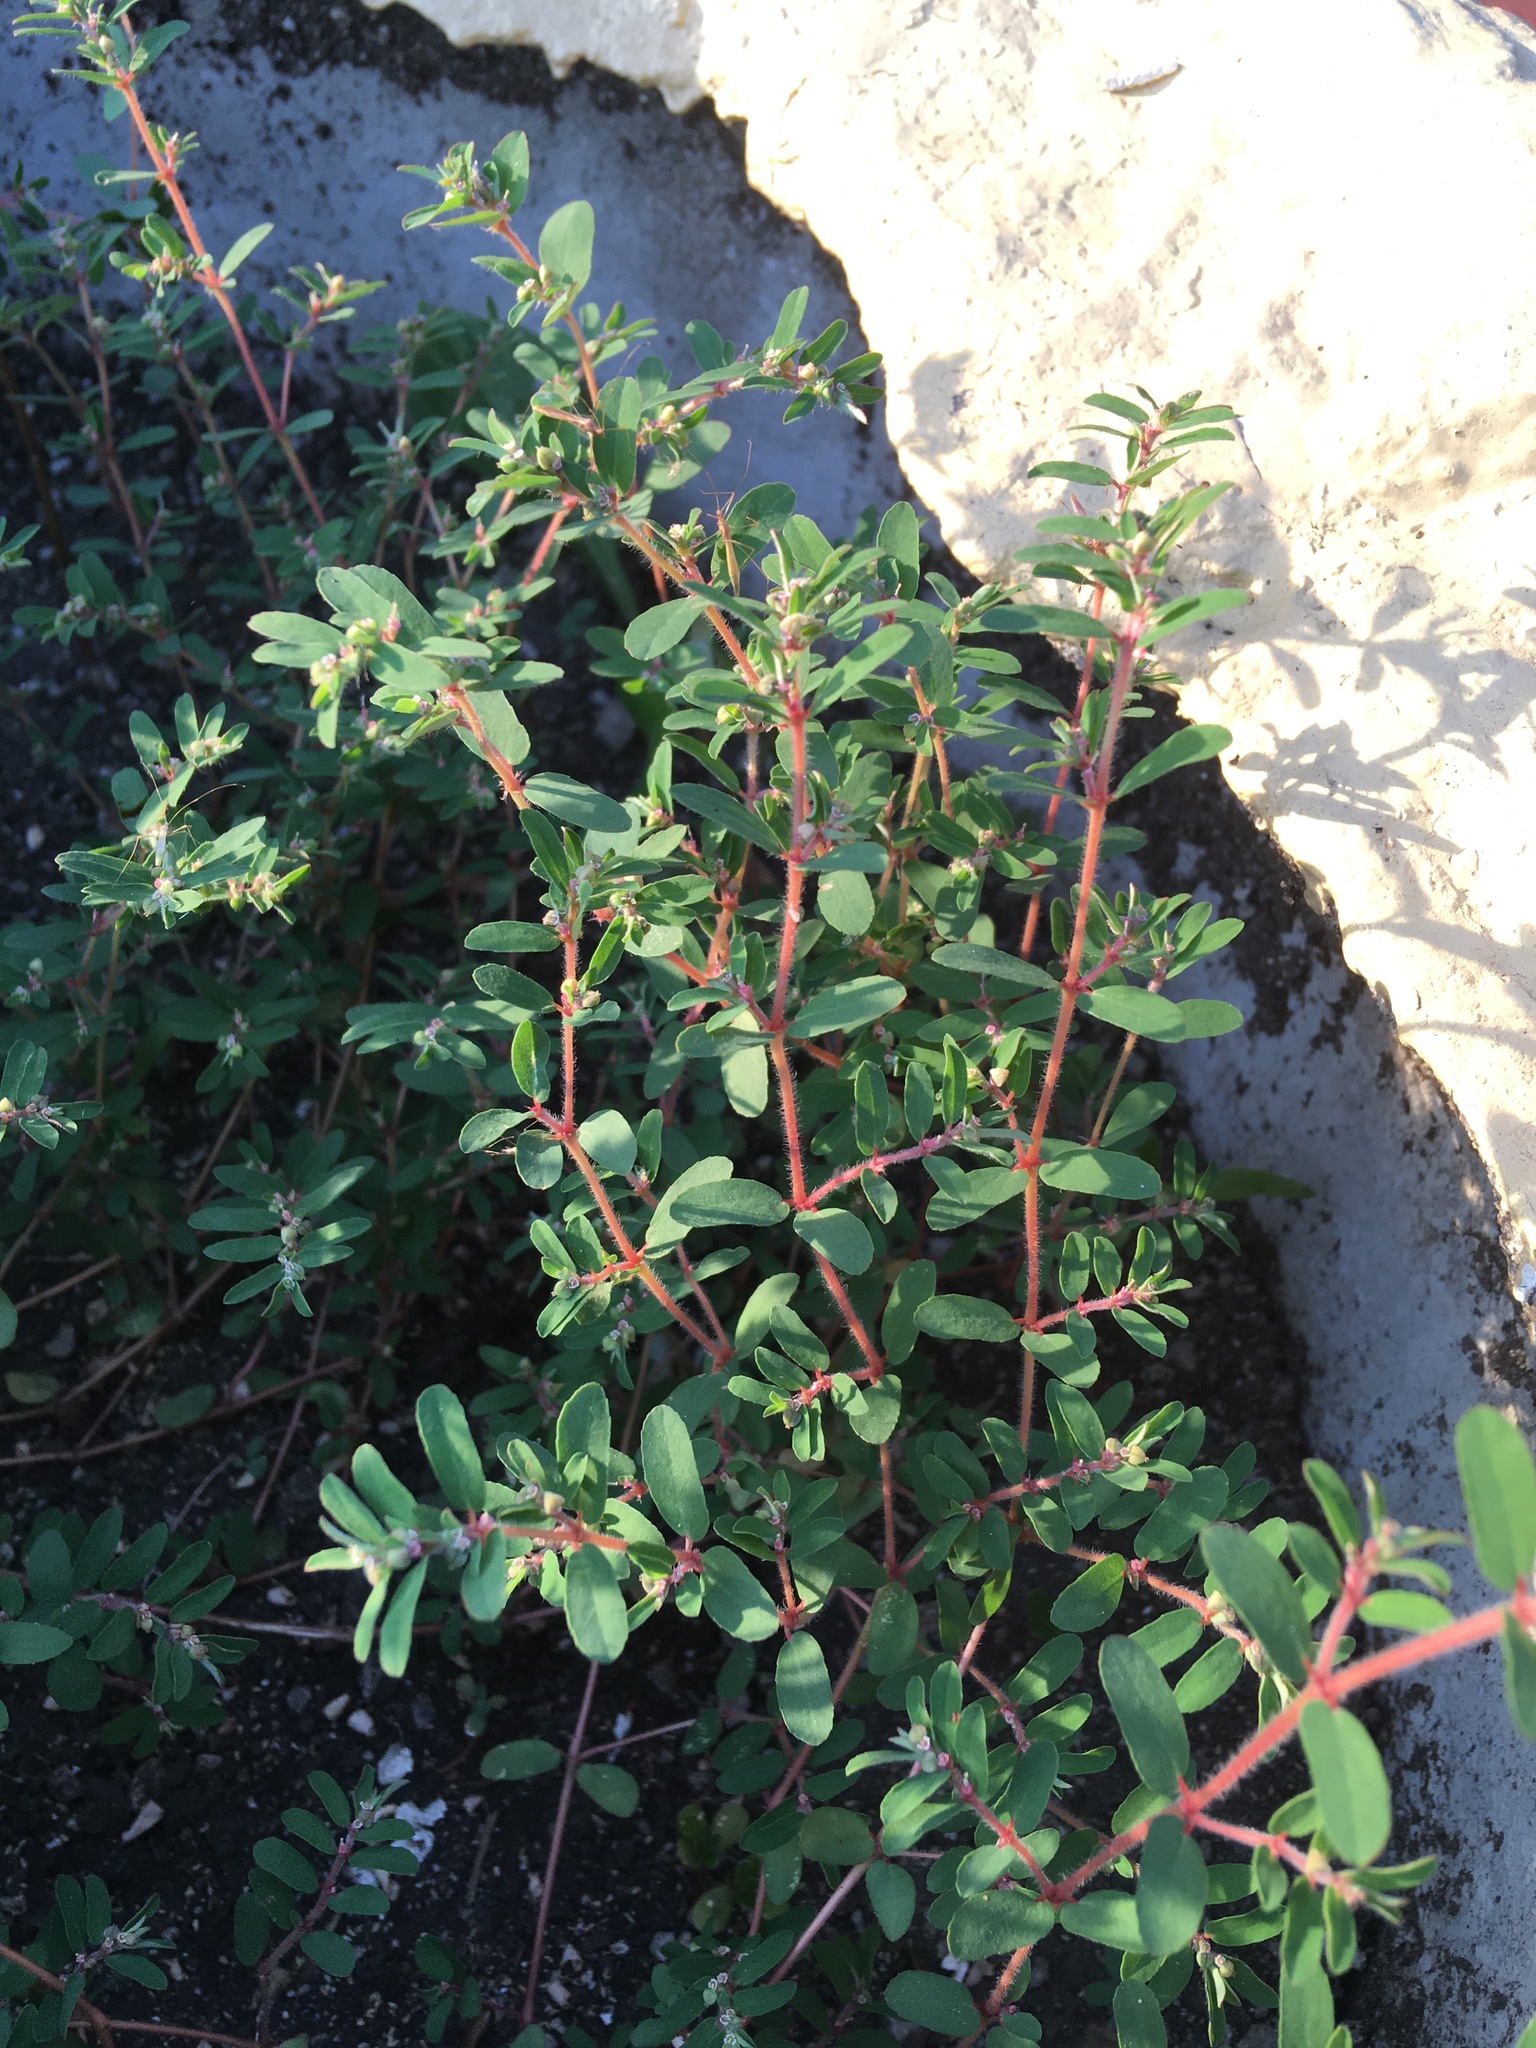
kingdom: Plantae
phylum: Tracheophyta
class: Magnoliopsida
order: Malpighiales
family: Euphorbiaceae
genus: Euphorbia
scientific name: Euphorbia maculata
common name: Spotted spurge
